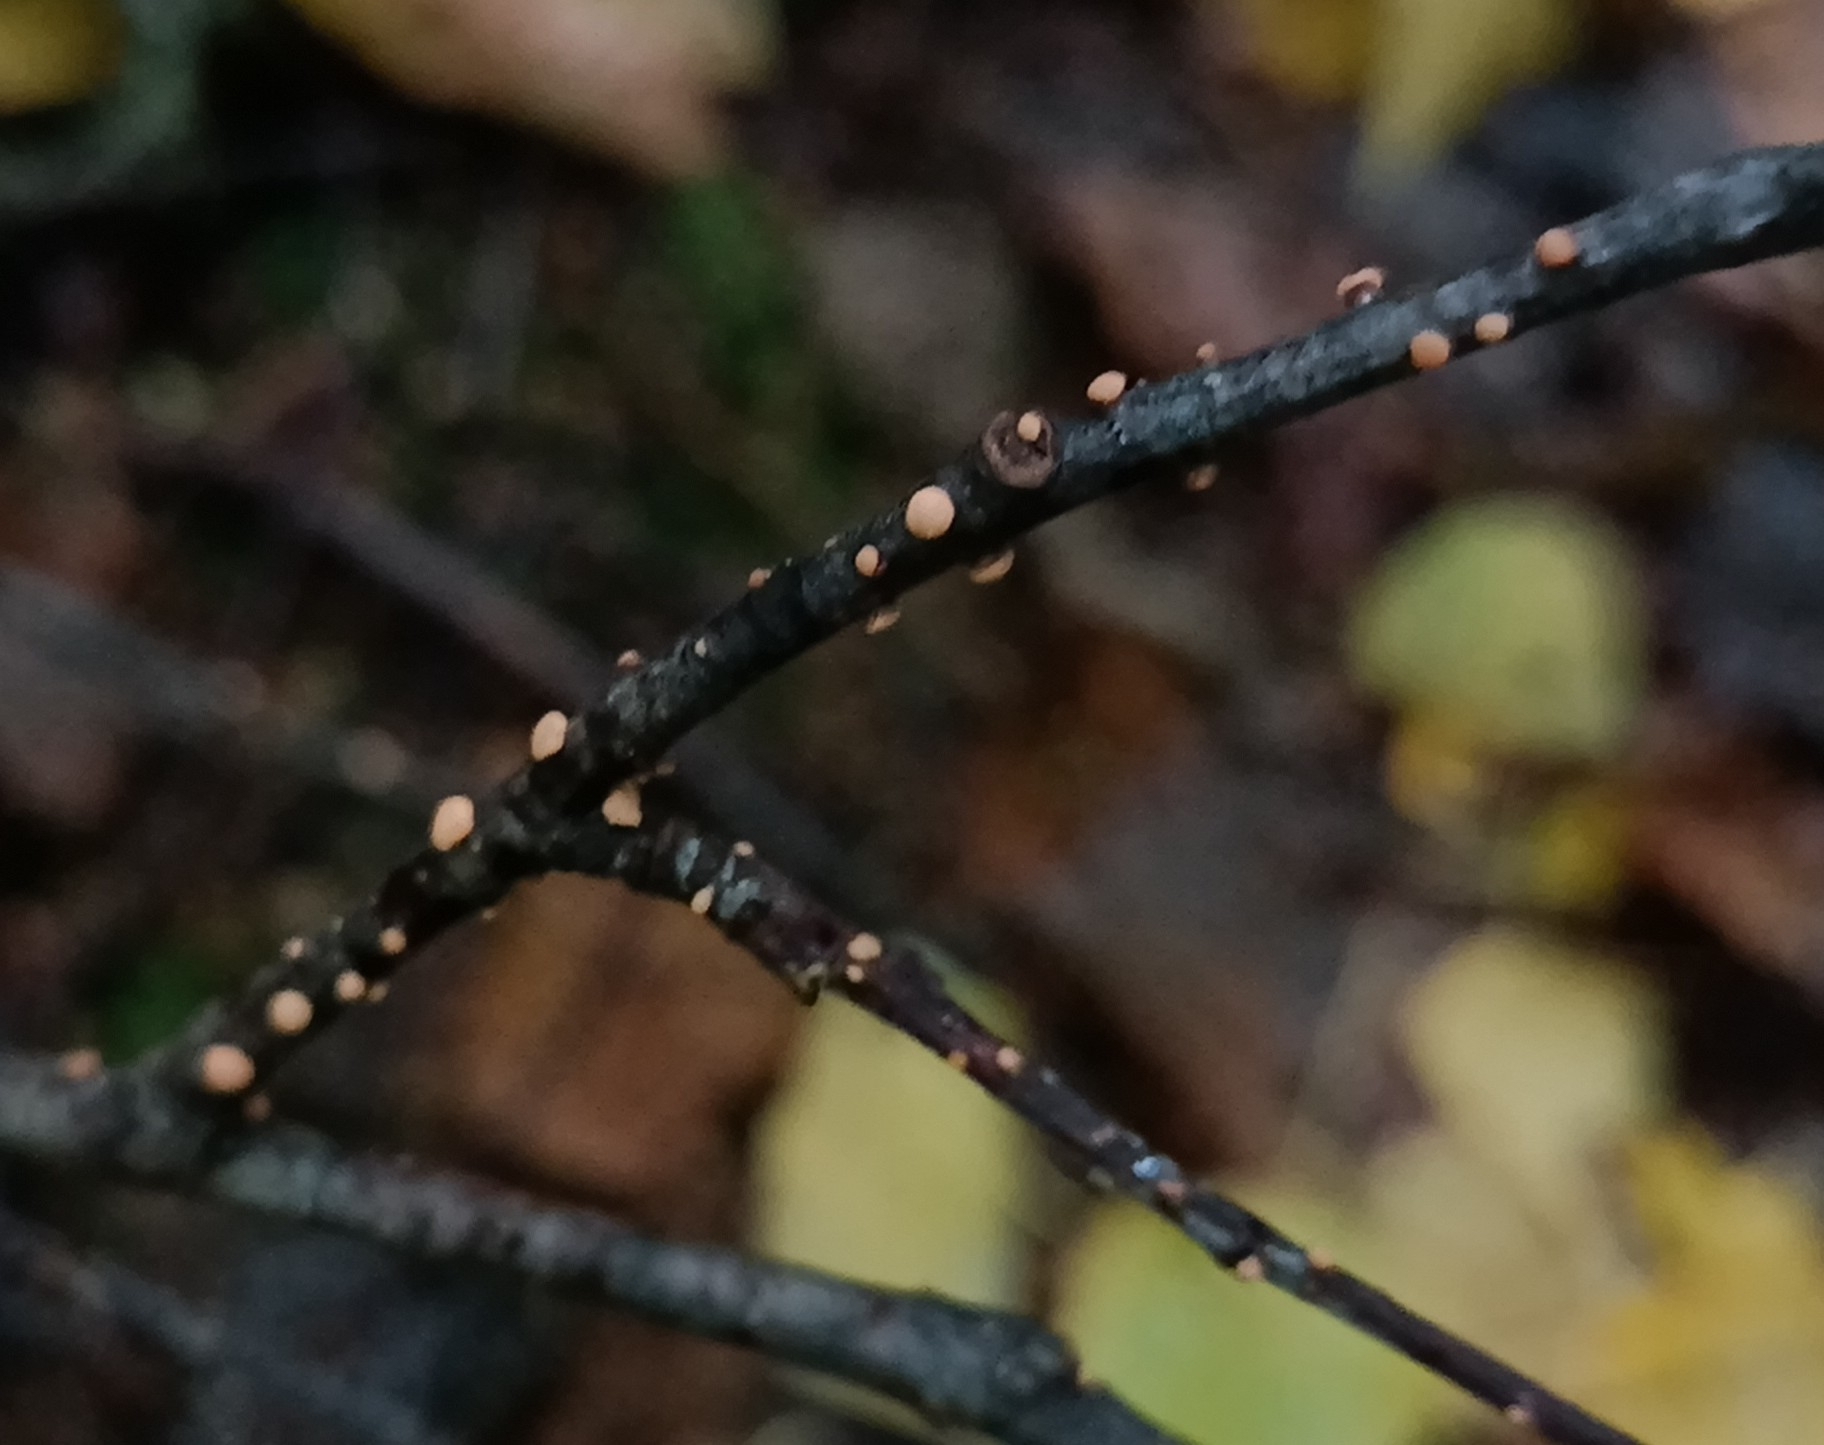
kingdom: Fungi
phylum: Ascomycota
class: Sordariomycetes
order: Hypocreales
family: Nectriaceae
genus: Nectria
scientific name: Nectria cinnabarina
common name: Coral spot
